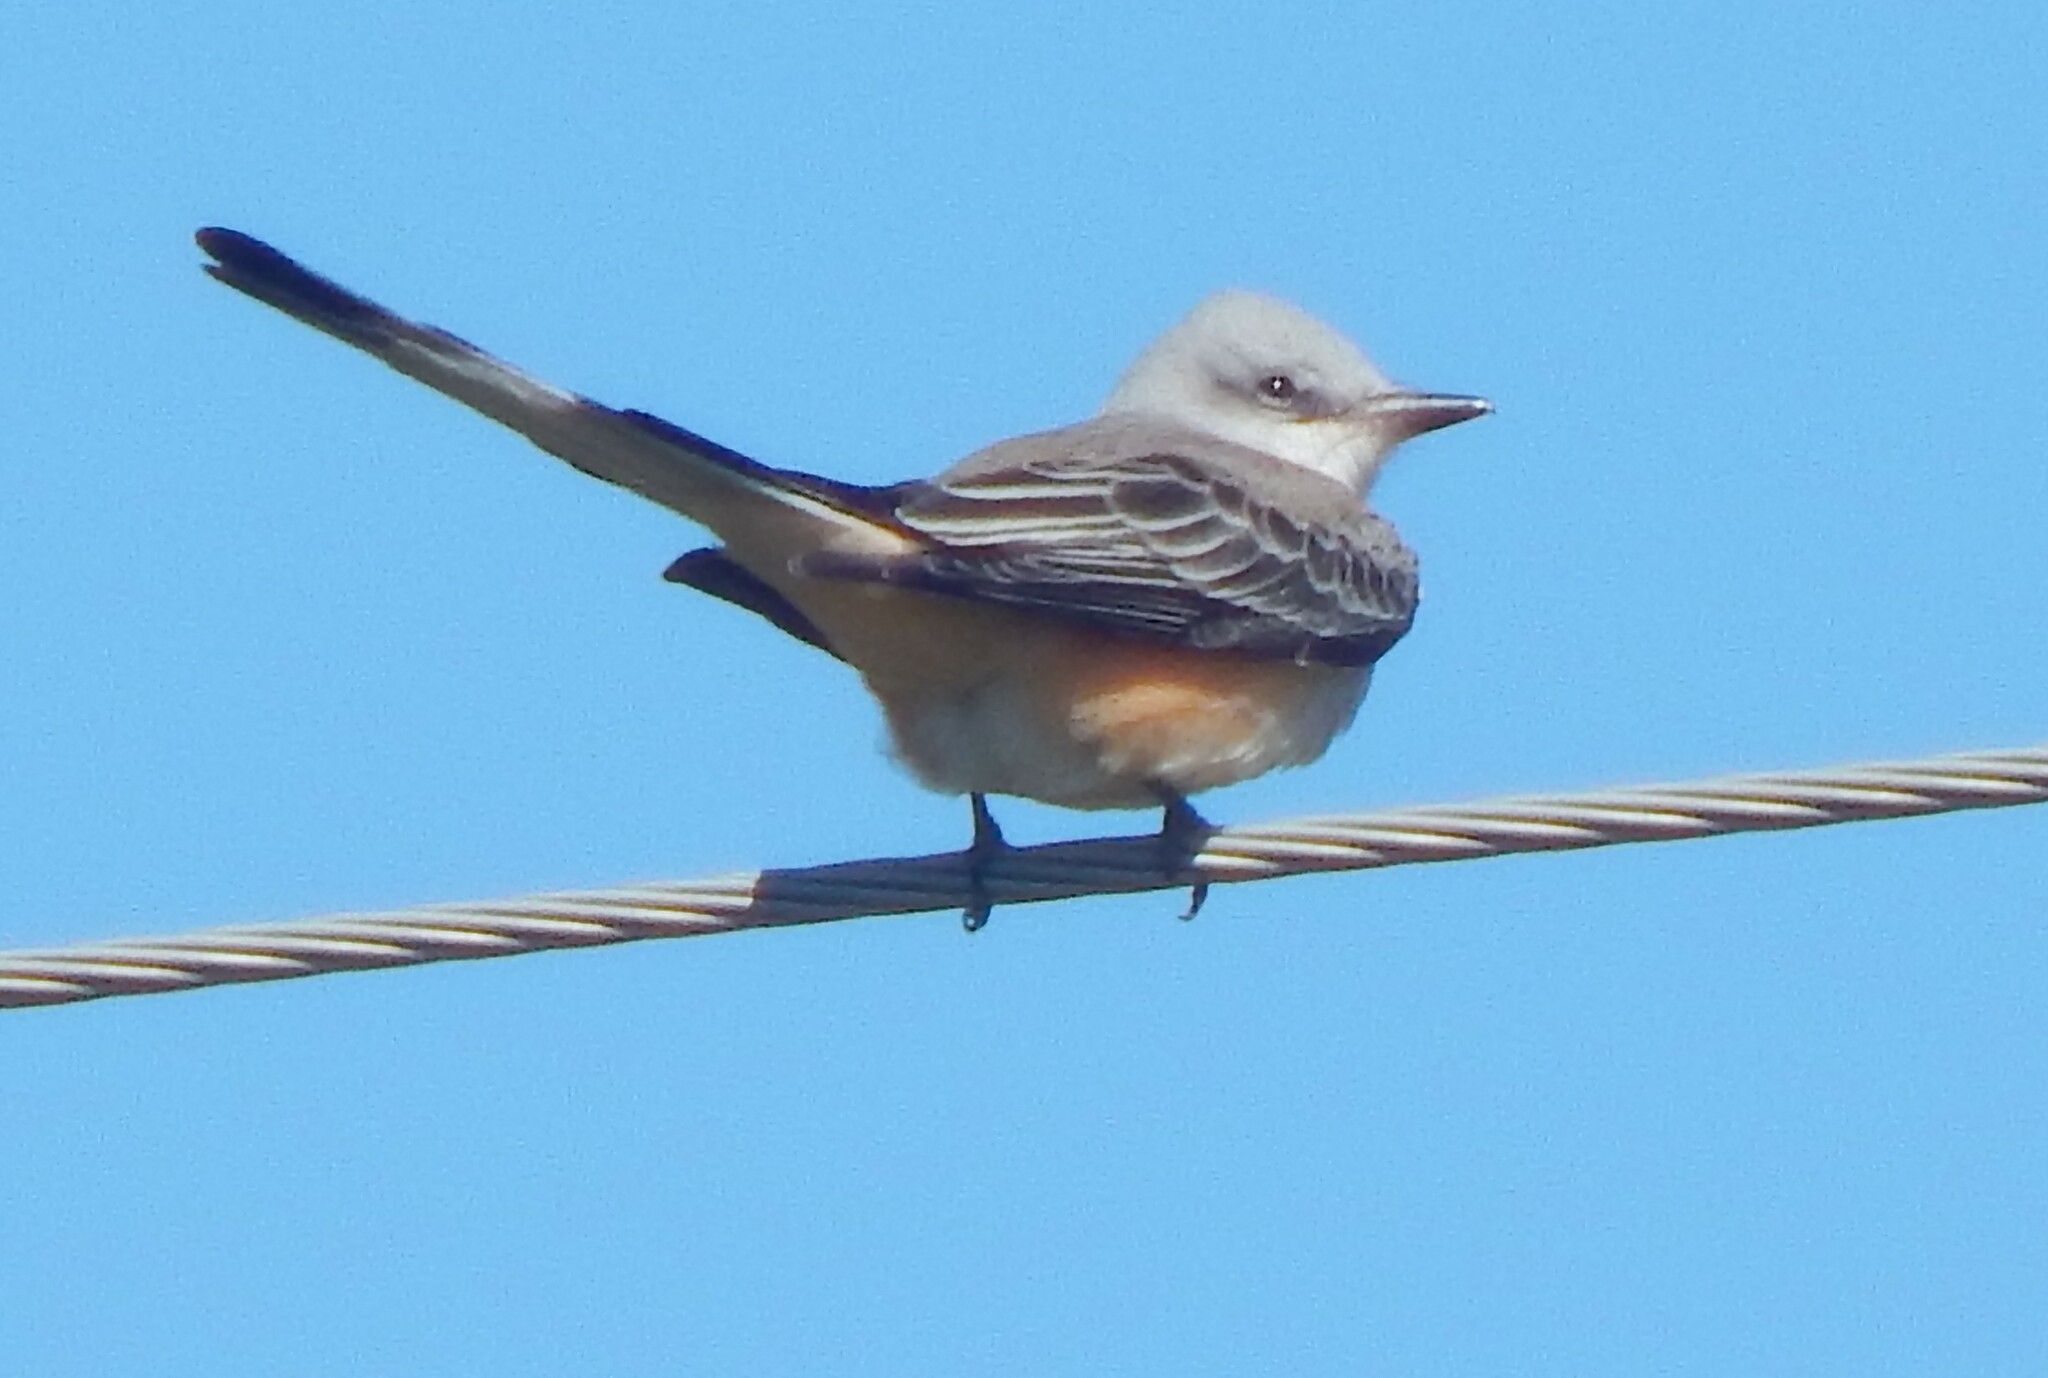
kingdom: Animalia
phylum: Chordata
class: Aves
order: Passeriformes
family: Tyrannidae
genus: Tyrannus
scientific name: Tyrannus forficatus
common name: Scissor-tailed flycatcher
